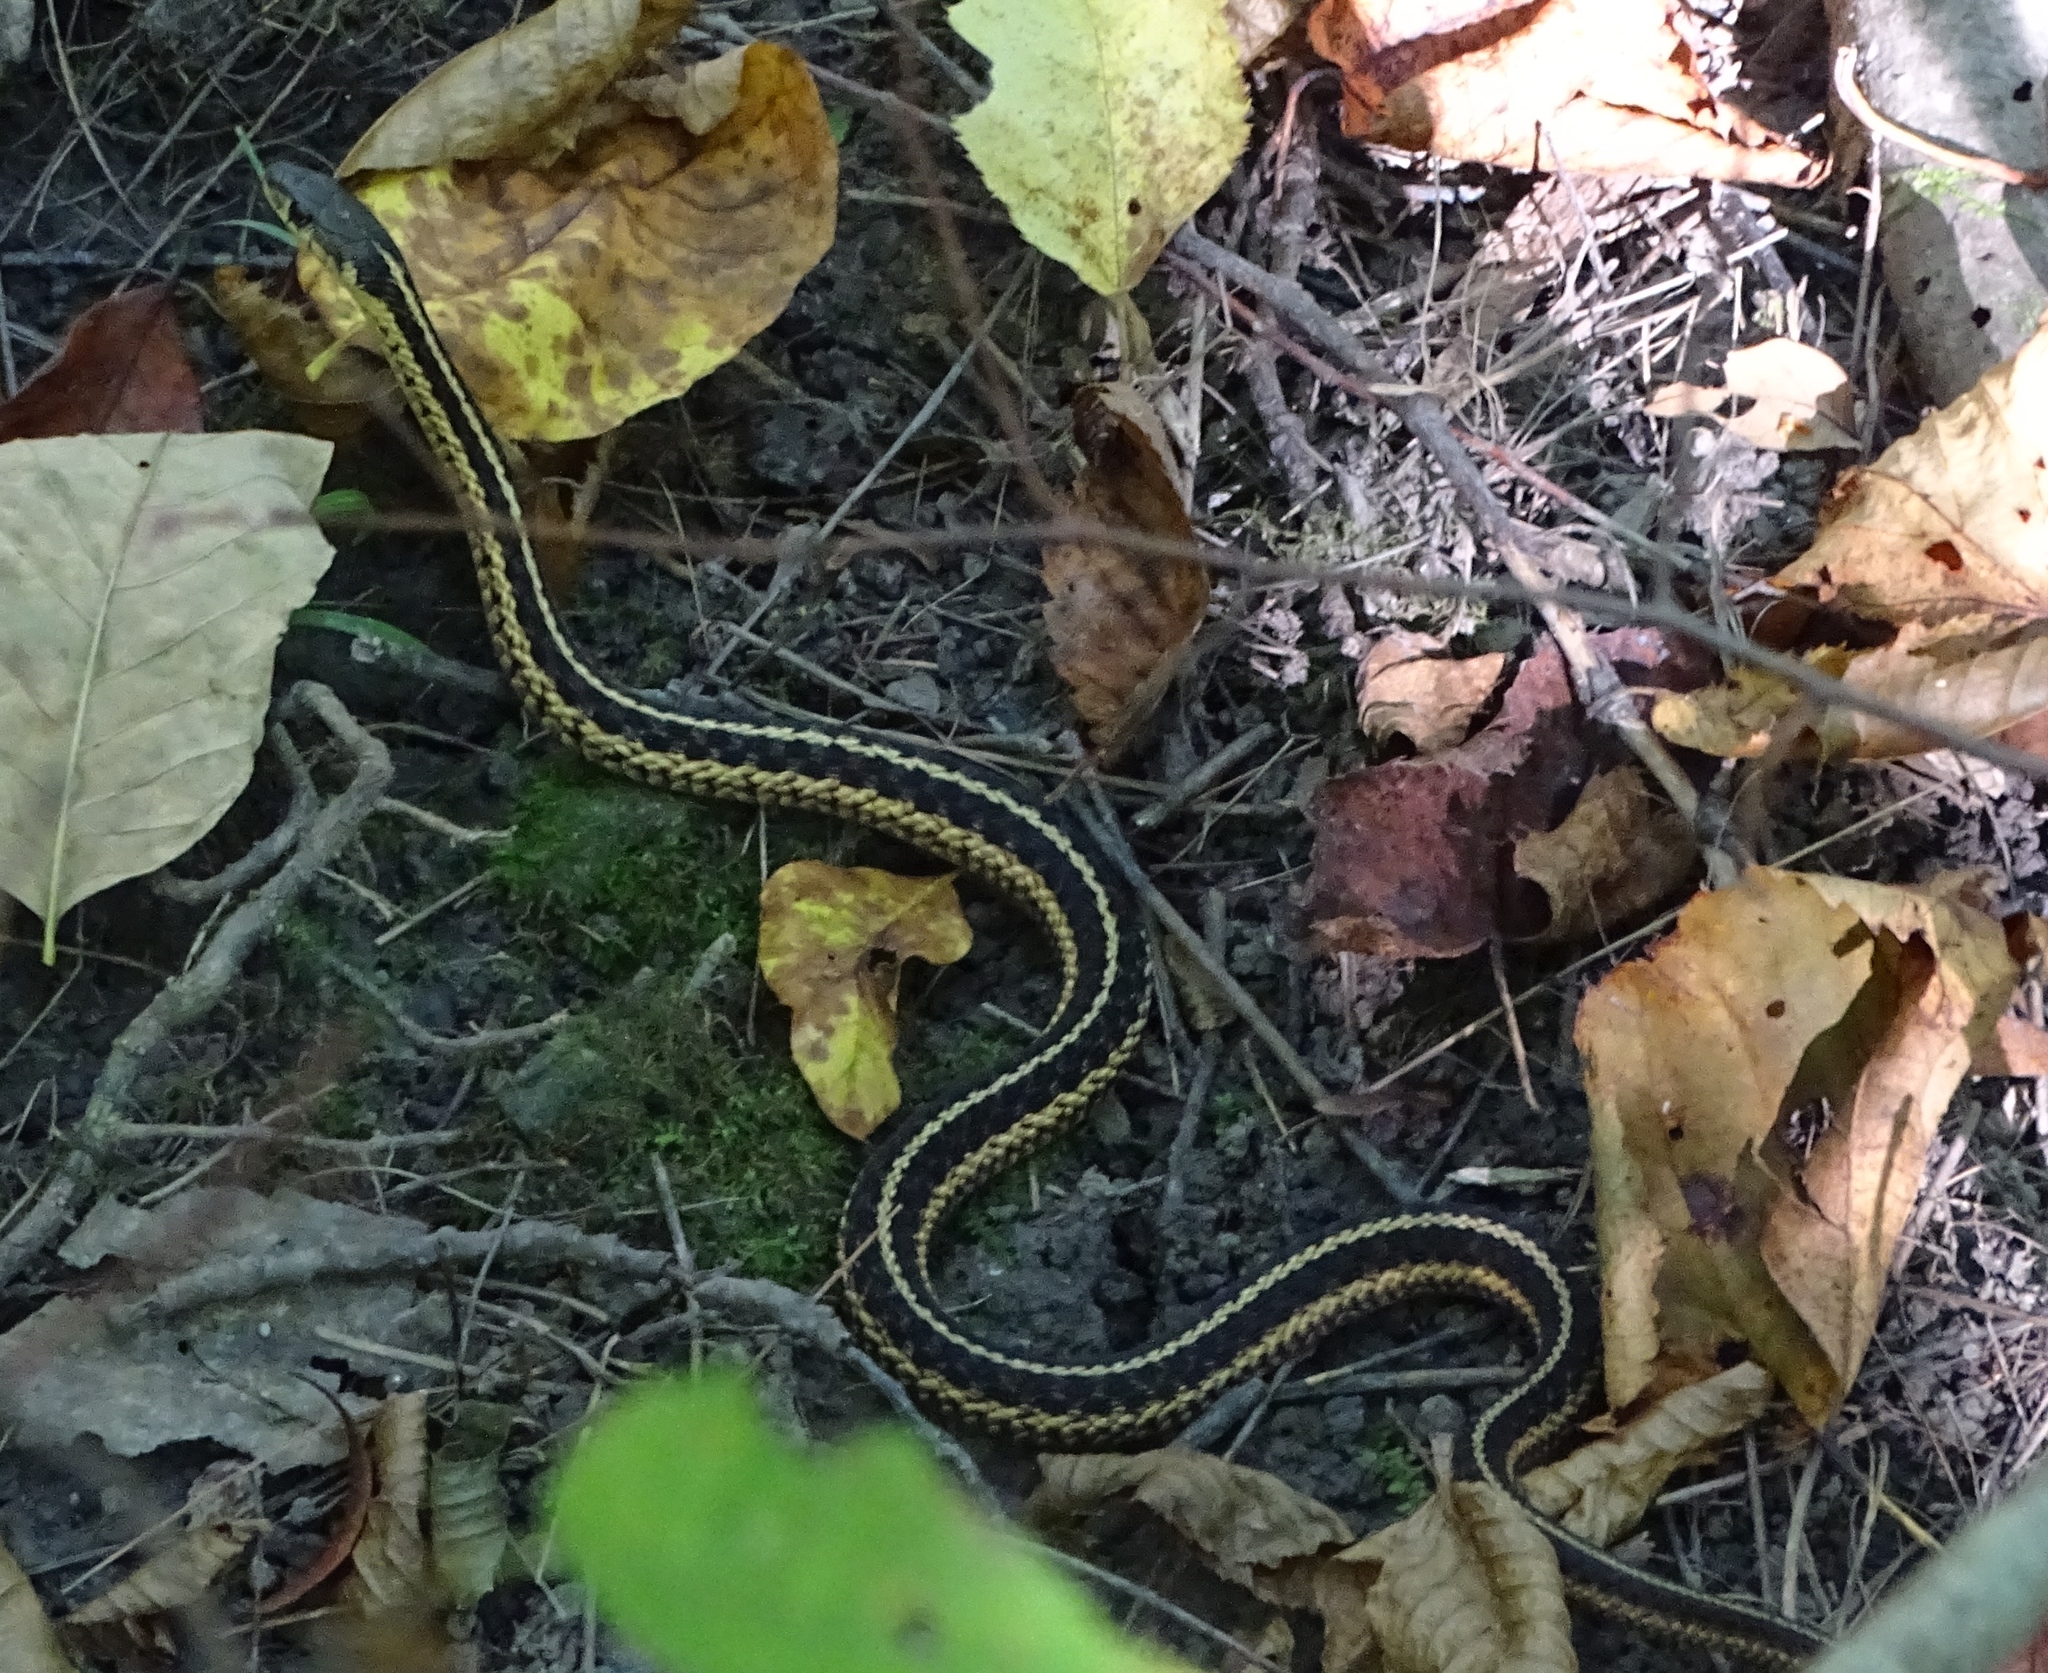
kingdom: Animalia
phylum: Chordata
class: Squamata
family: Colubridae
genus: Thamnophis
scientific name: Thamnophis sirtalis
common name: Common garter snake
